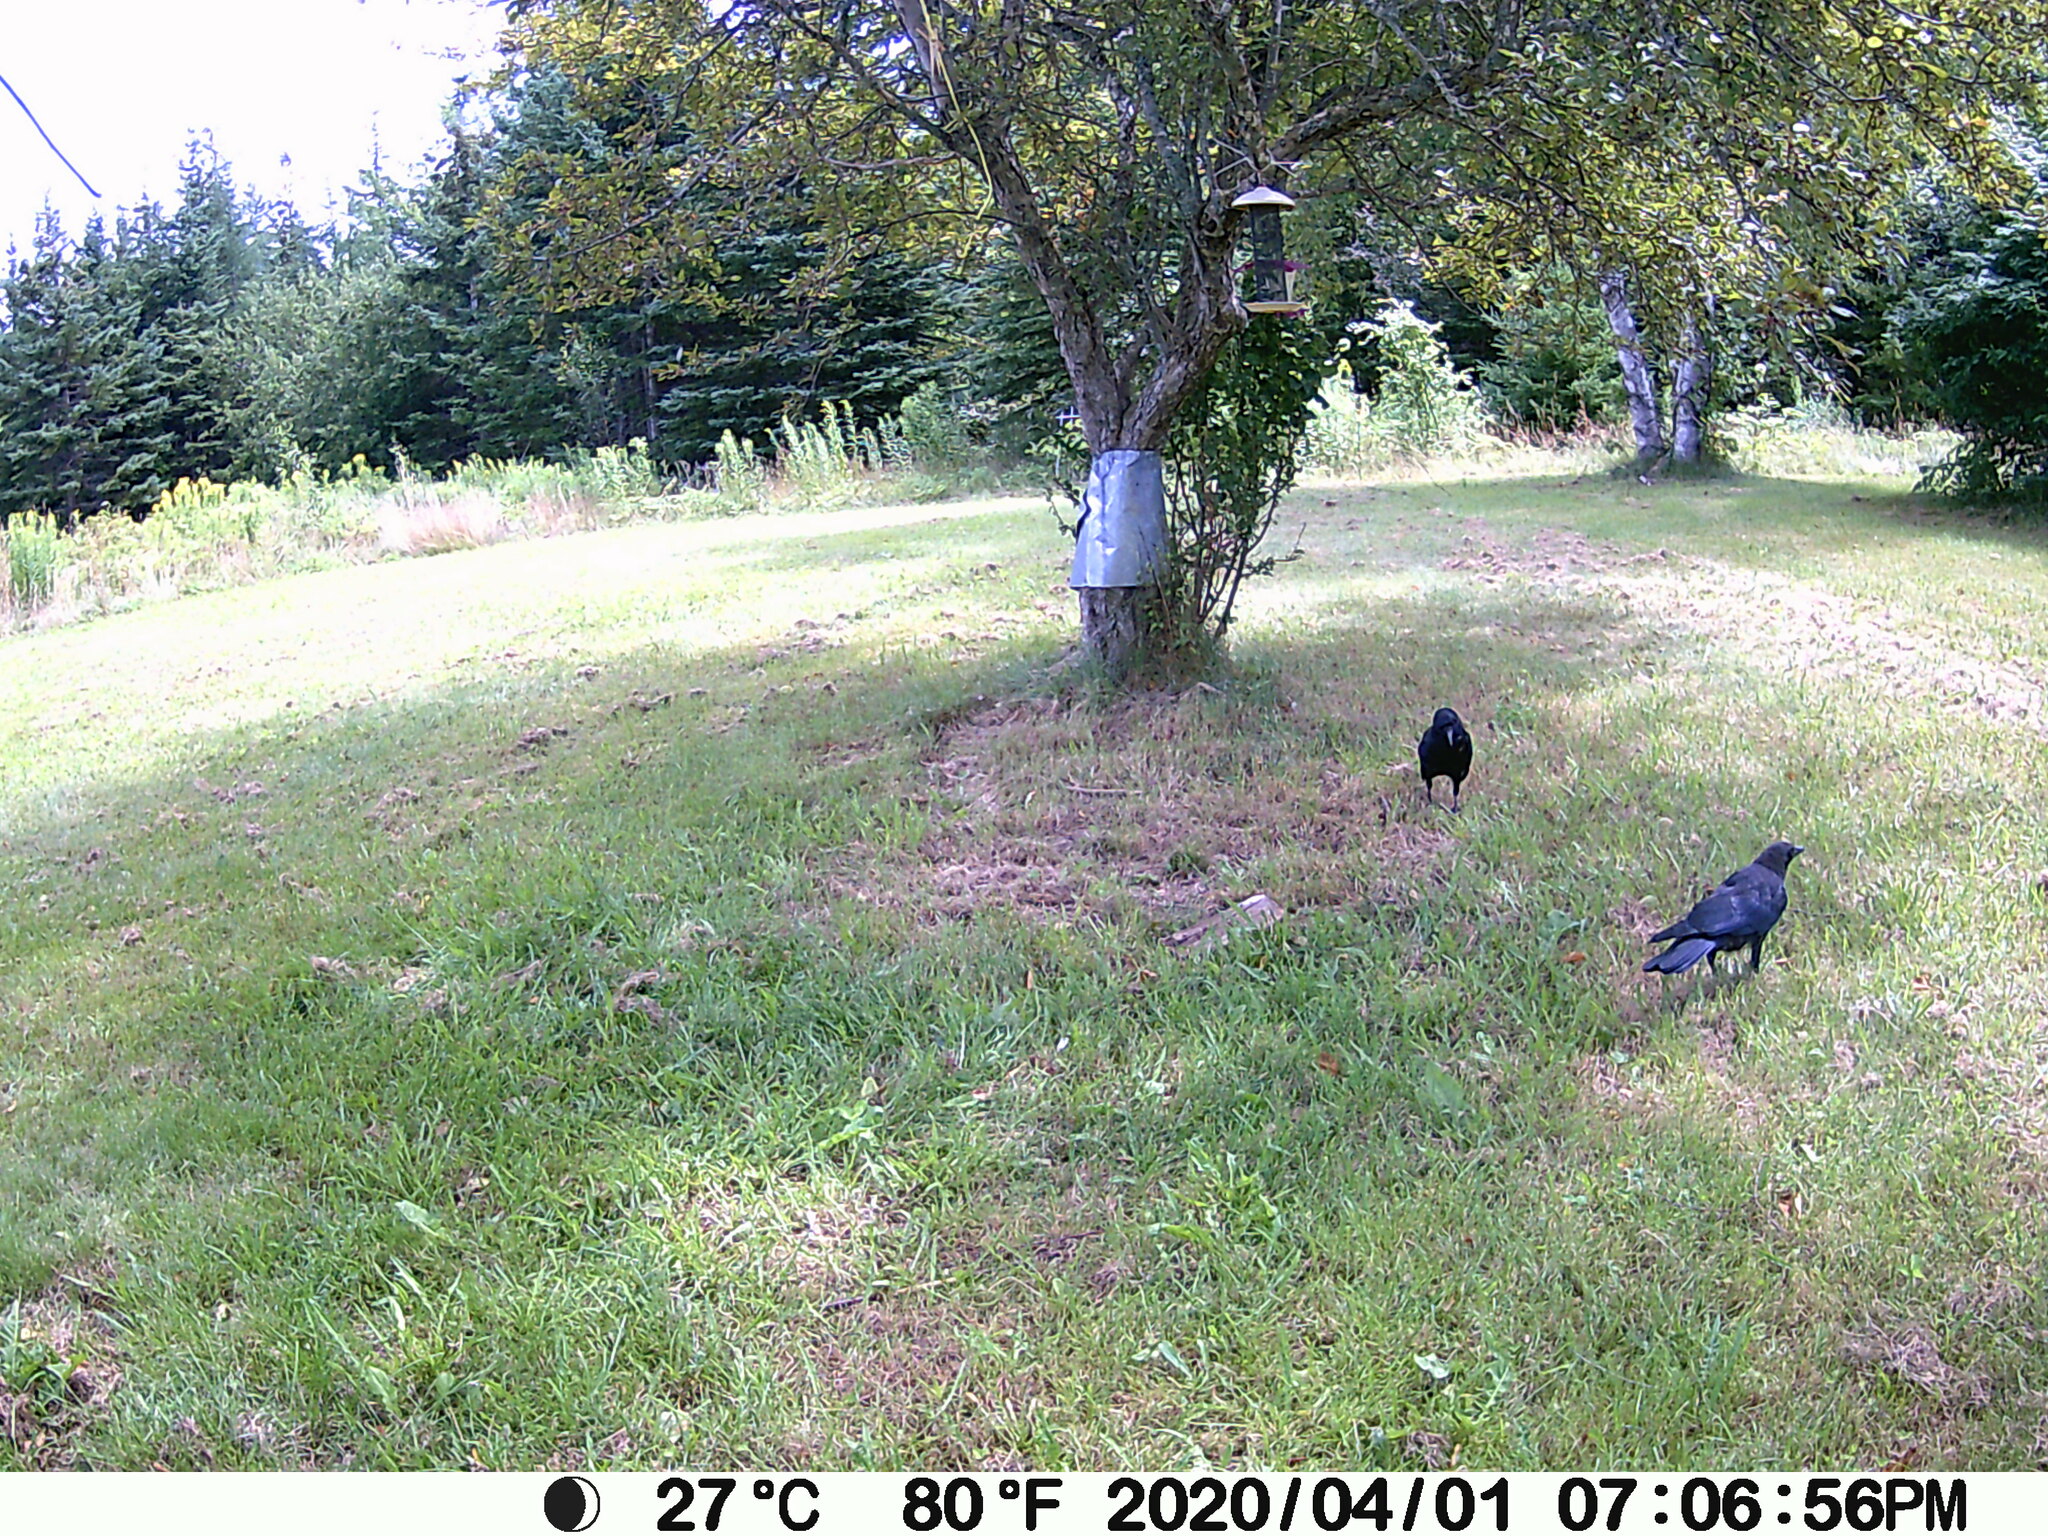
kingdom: Animalia
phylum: Chordata
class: Aves
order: Passeriformes
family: Corvidae
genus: Corvus
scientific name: Corvus brachyrhynchos
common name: American crow
